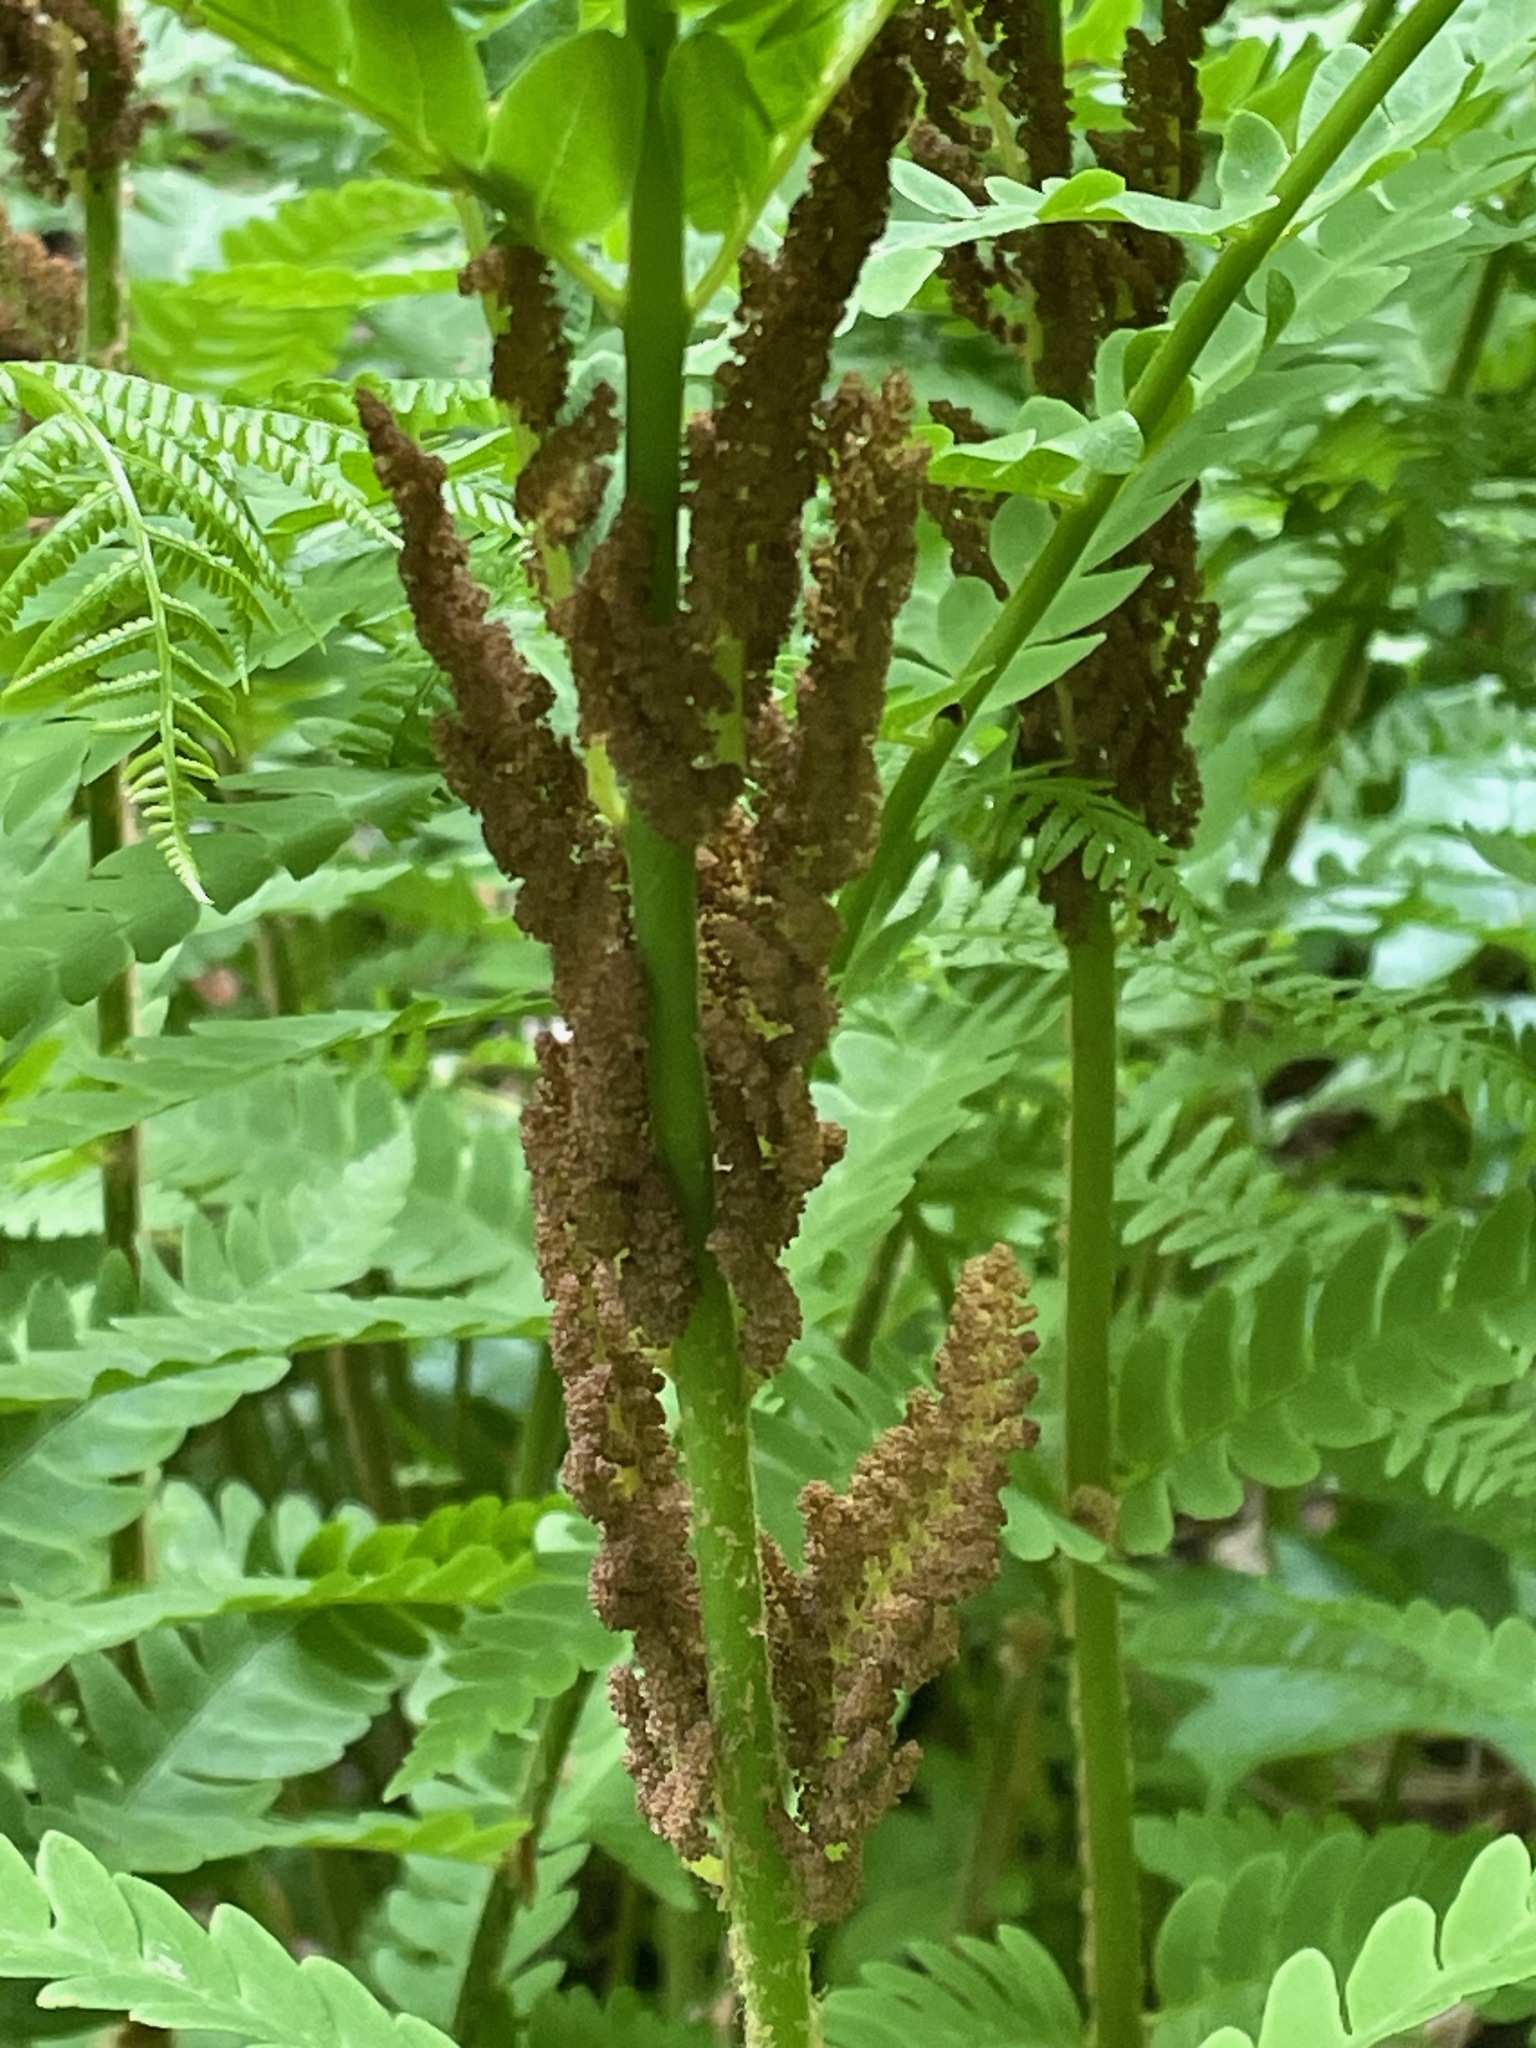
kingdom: Plantae
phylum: Tracheophyta
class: Polypodiopsida
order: Osmundales
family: Osmundaceae
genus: Claytosmunda
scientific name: Claytosmunda claytoniana
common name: Clayton's fern
